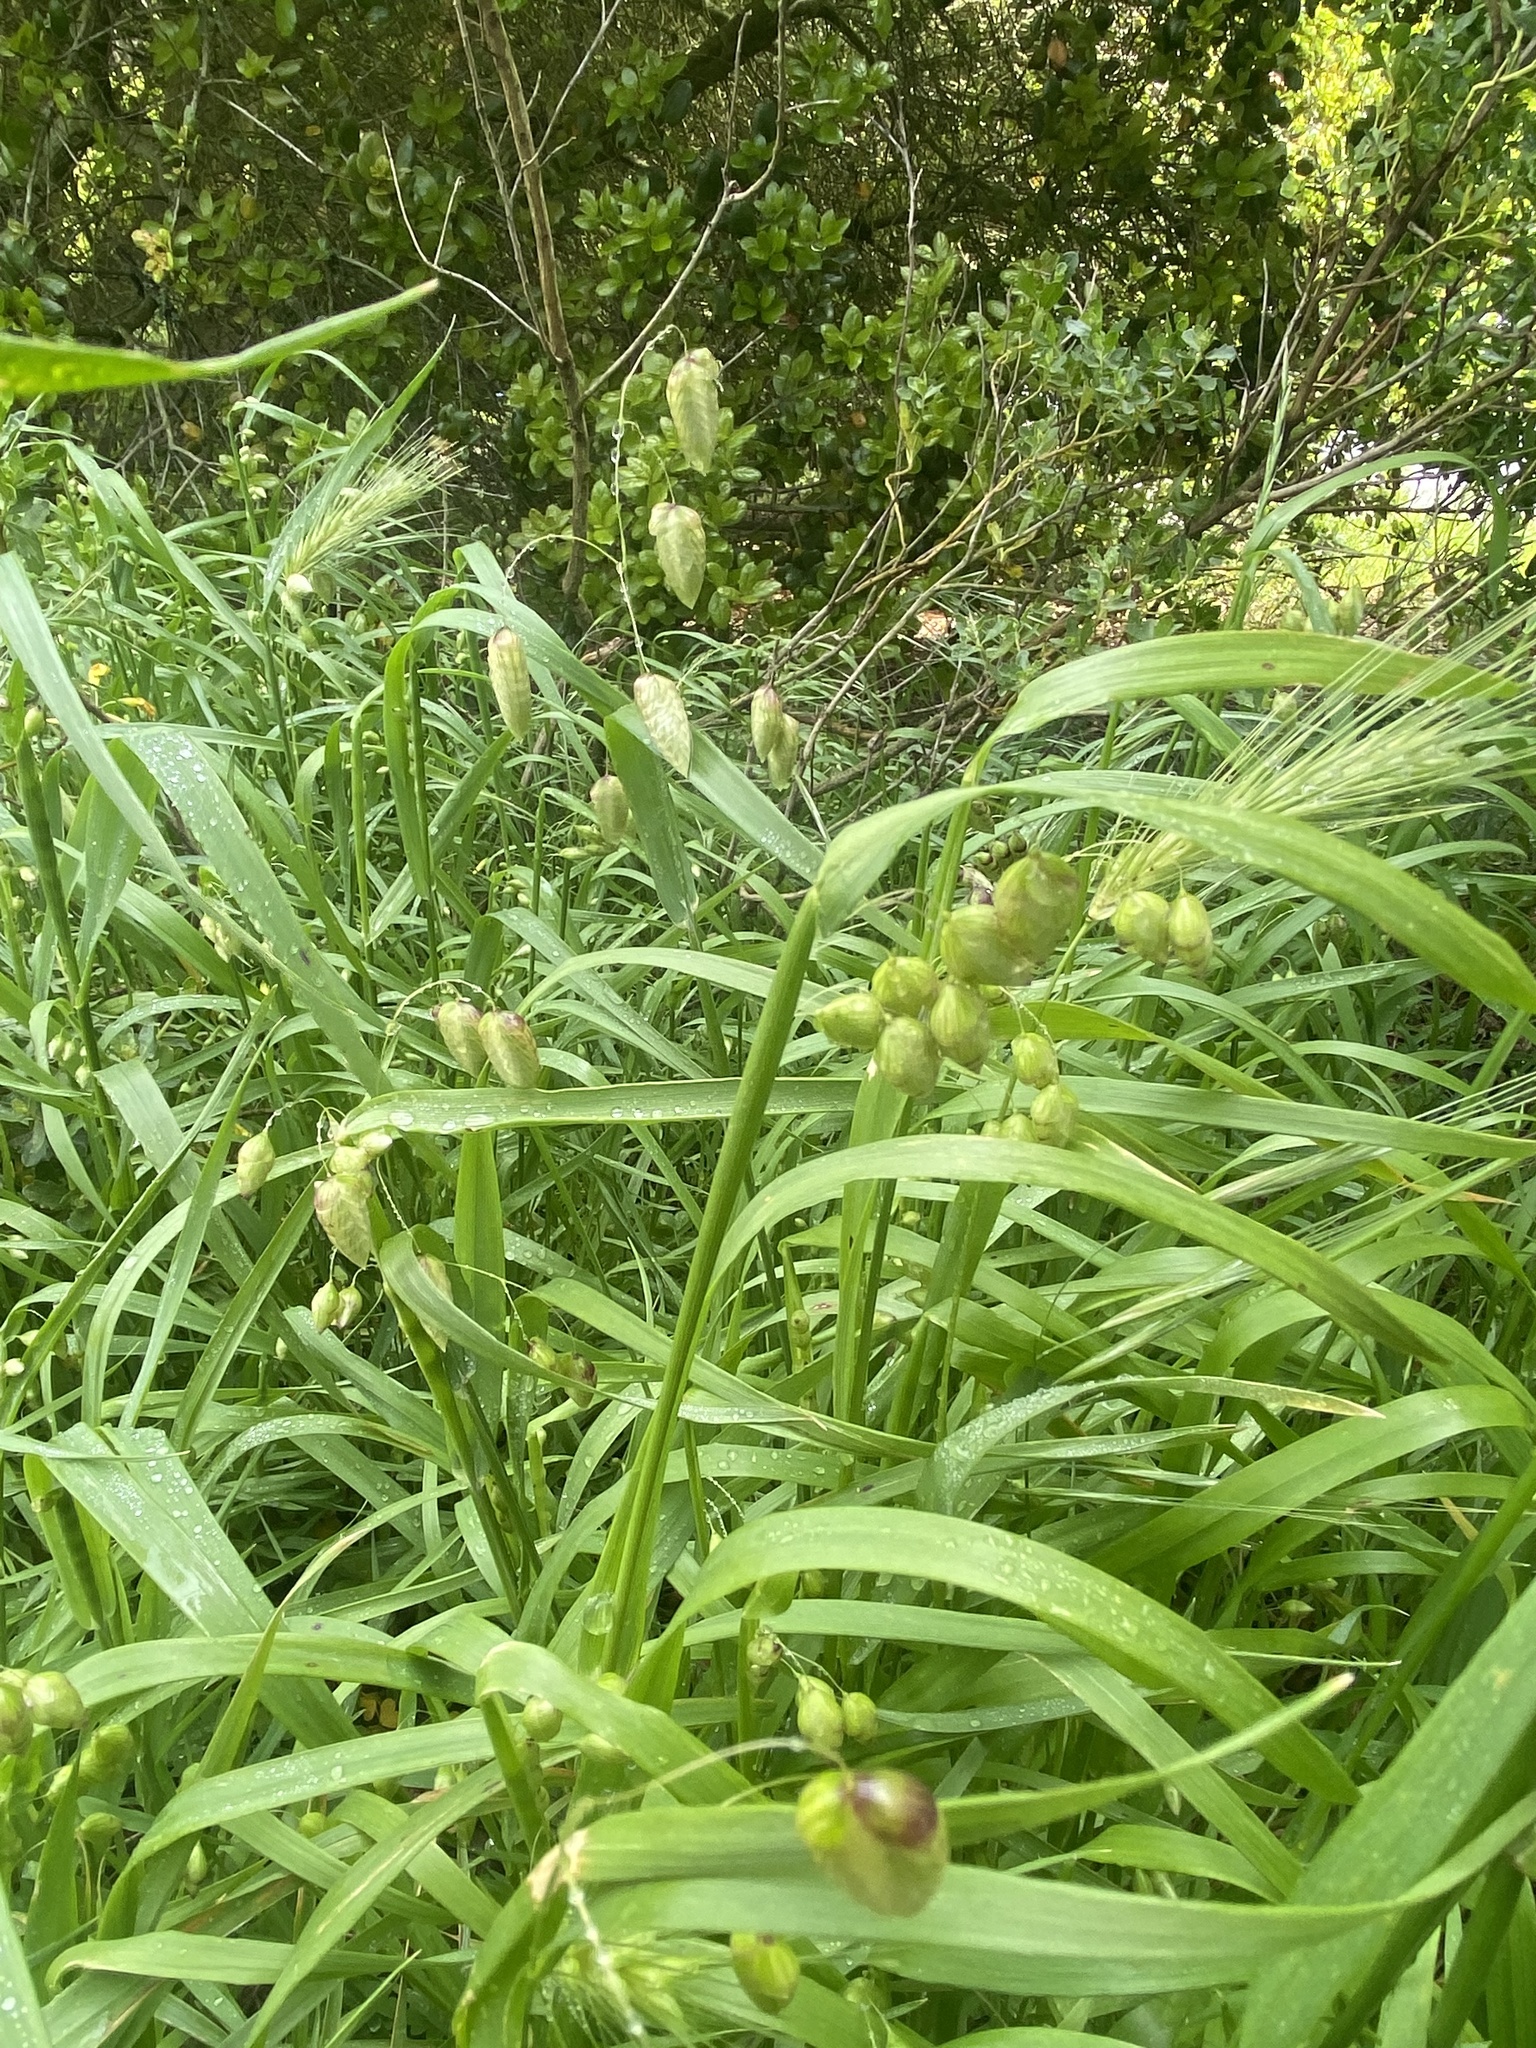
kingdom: Plantae
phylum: Tracheophyta
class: Liliopsida
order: Poales
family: Poaceae
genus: Briza
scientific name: Briza maxima
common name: Big quakinggrass
